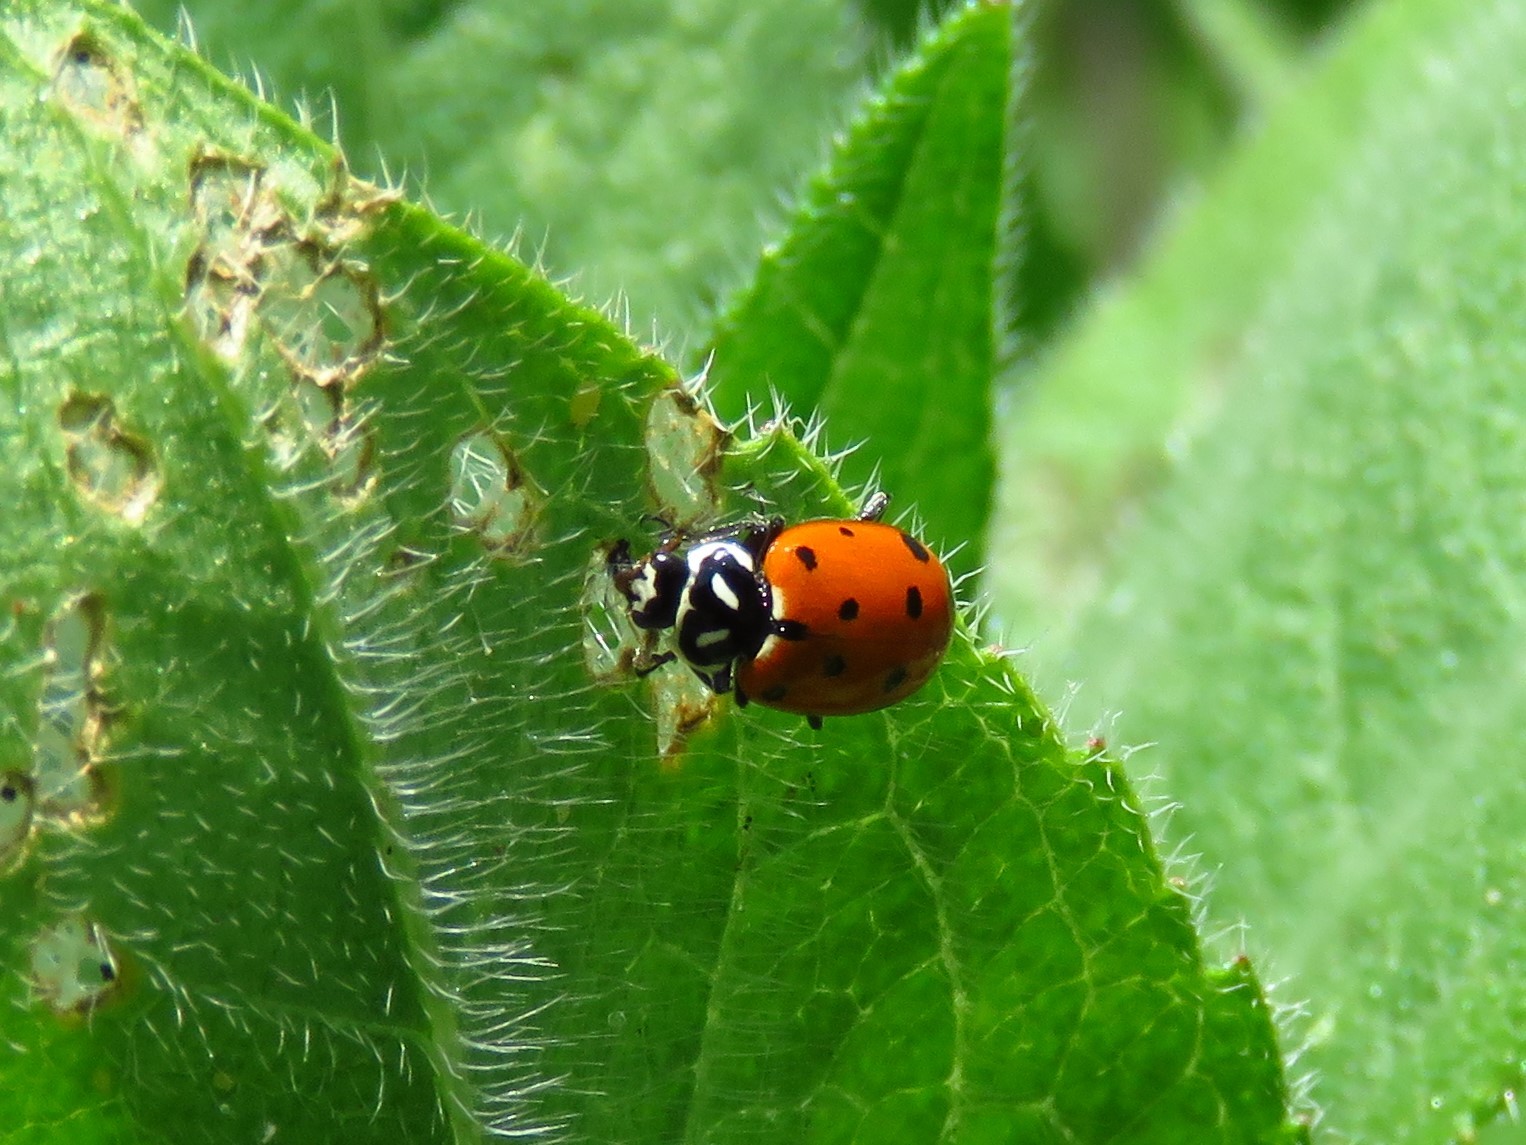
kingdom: Animalia
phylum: Arthropoda
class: Insecta
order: Coleoptera
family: Coccinellidae
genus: Hippodamia
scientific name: Hippodamia convergens
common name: Convergent lady beetle
